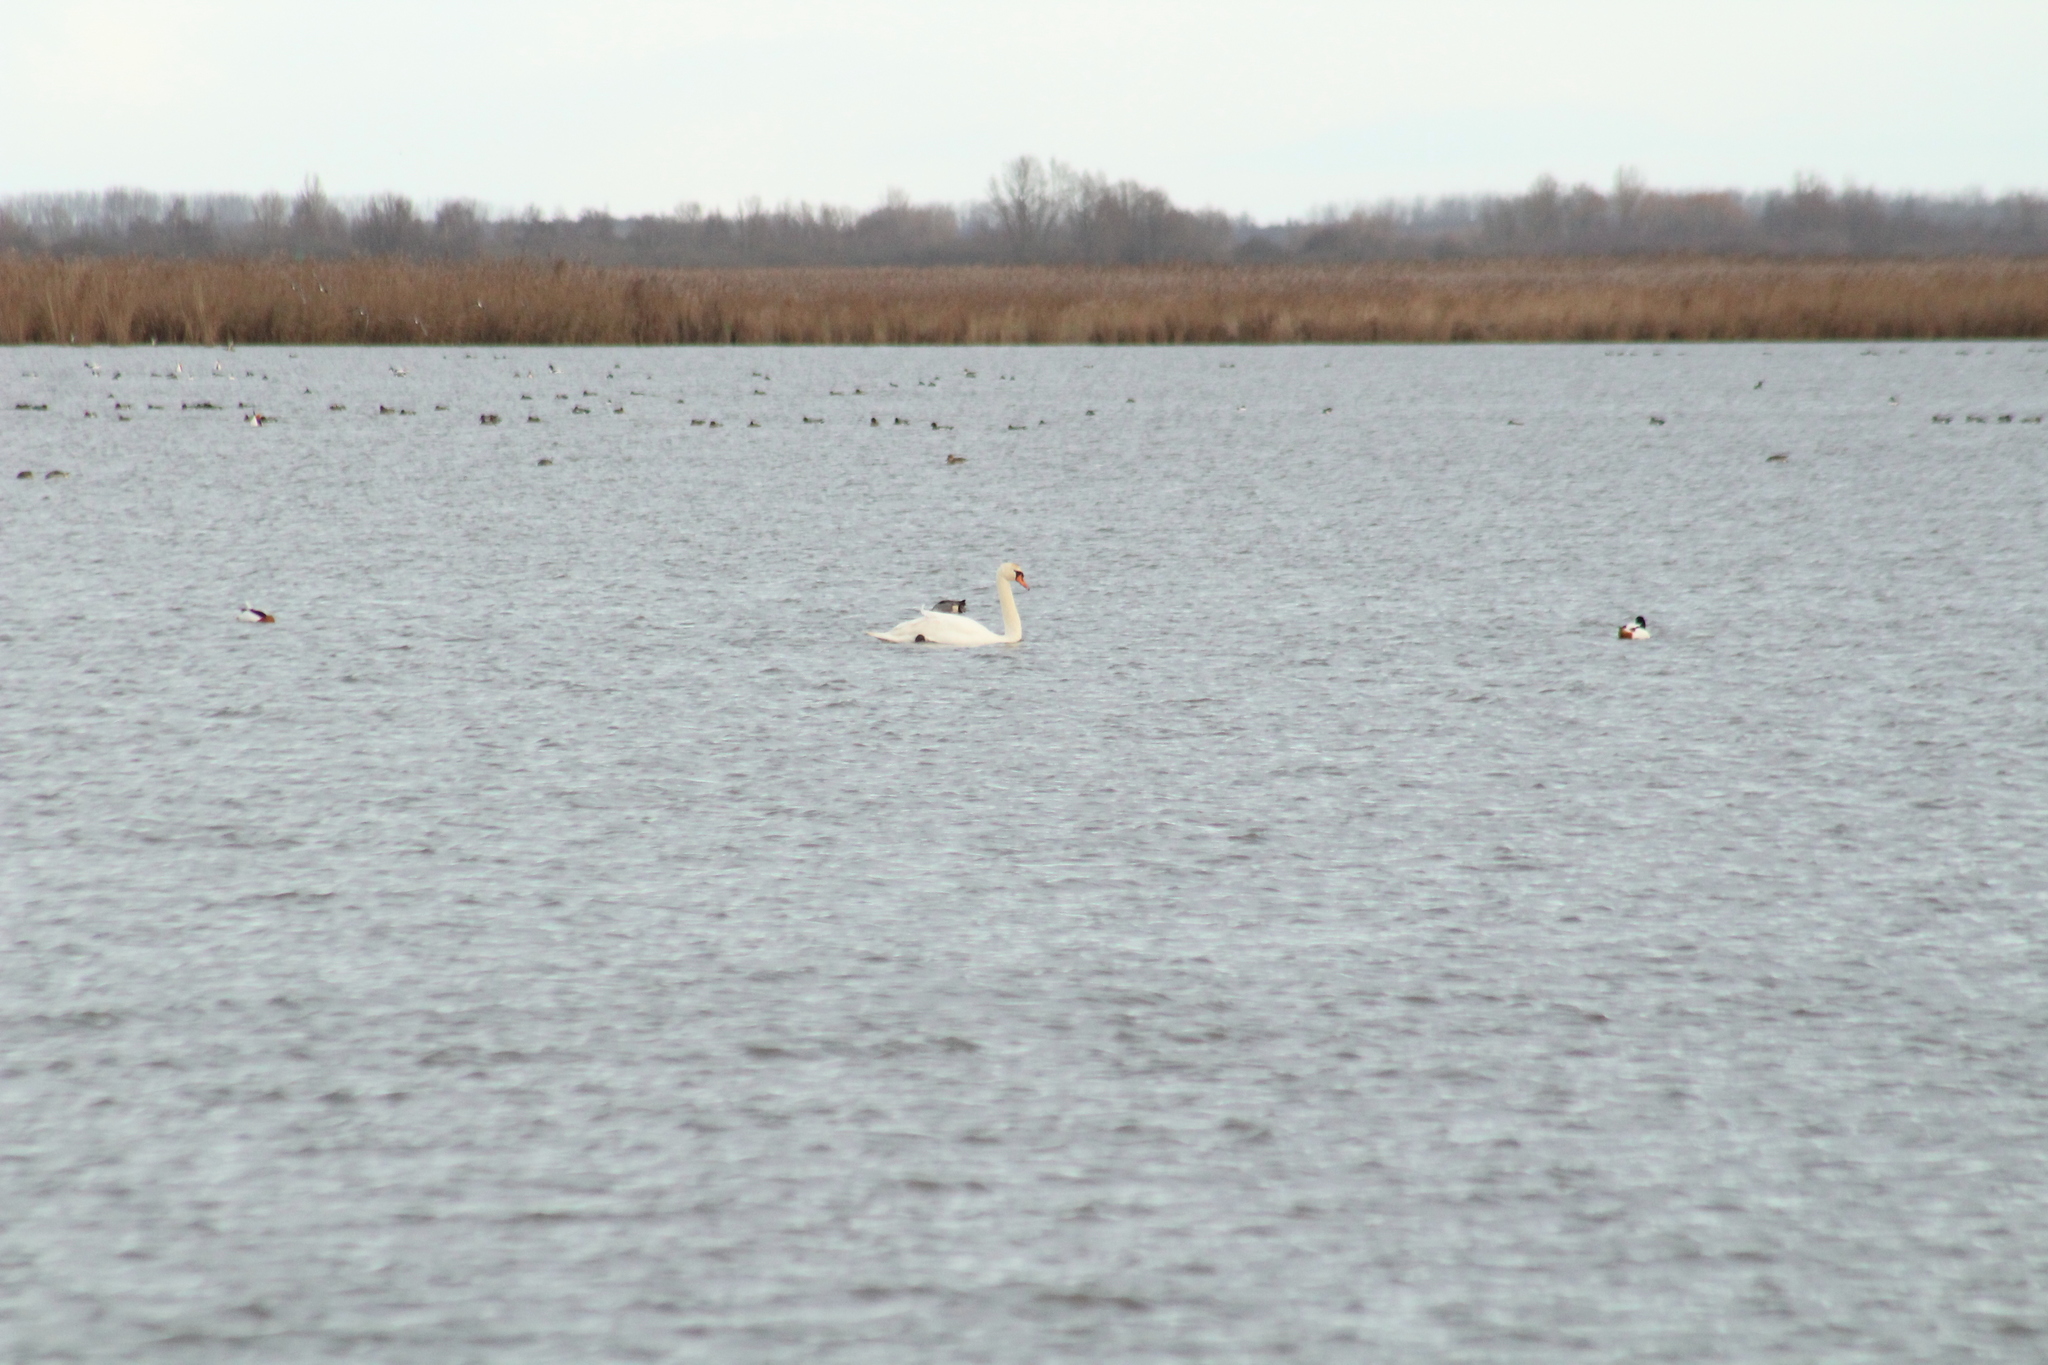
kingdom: Animalia
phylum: Chordata
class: Aves
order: Anseriformes
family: Anatidae
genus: Cygnus
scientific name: Cygnus olor
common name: Mute swan
